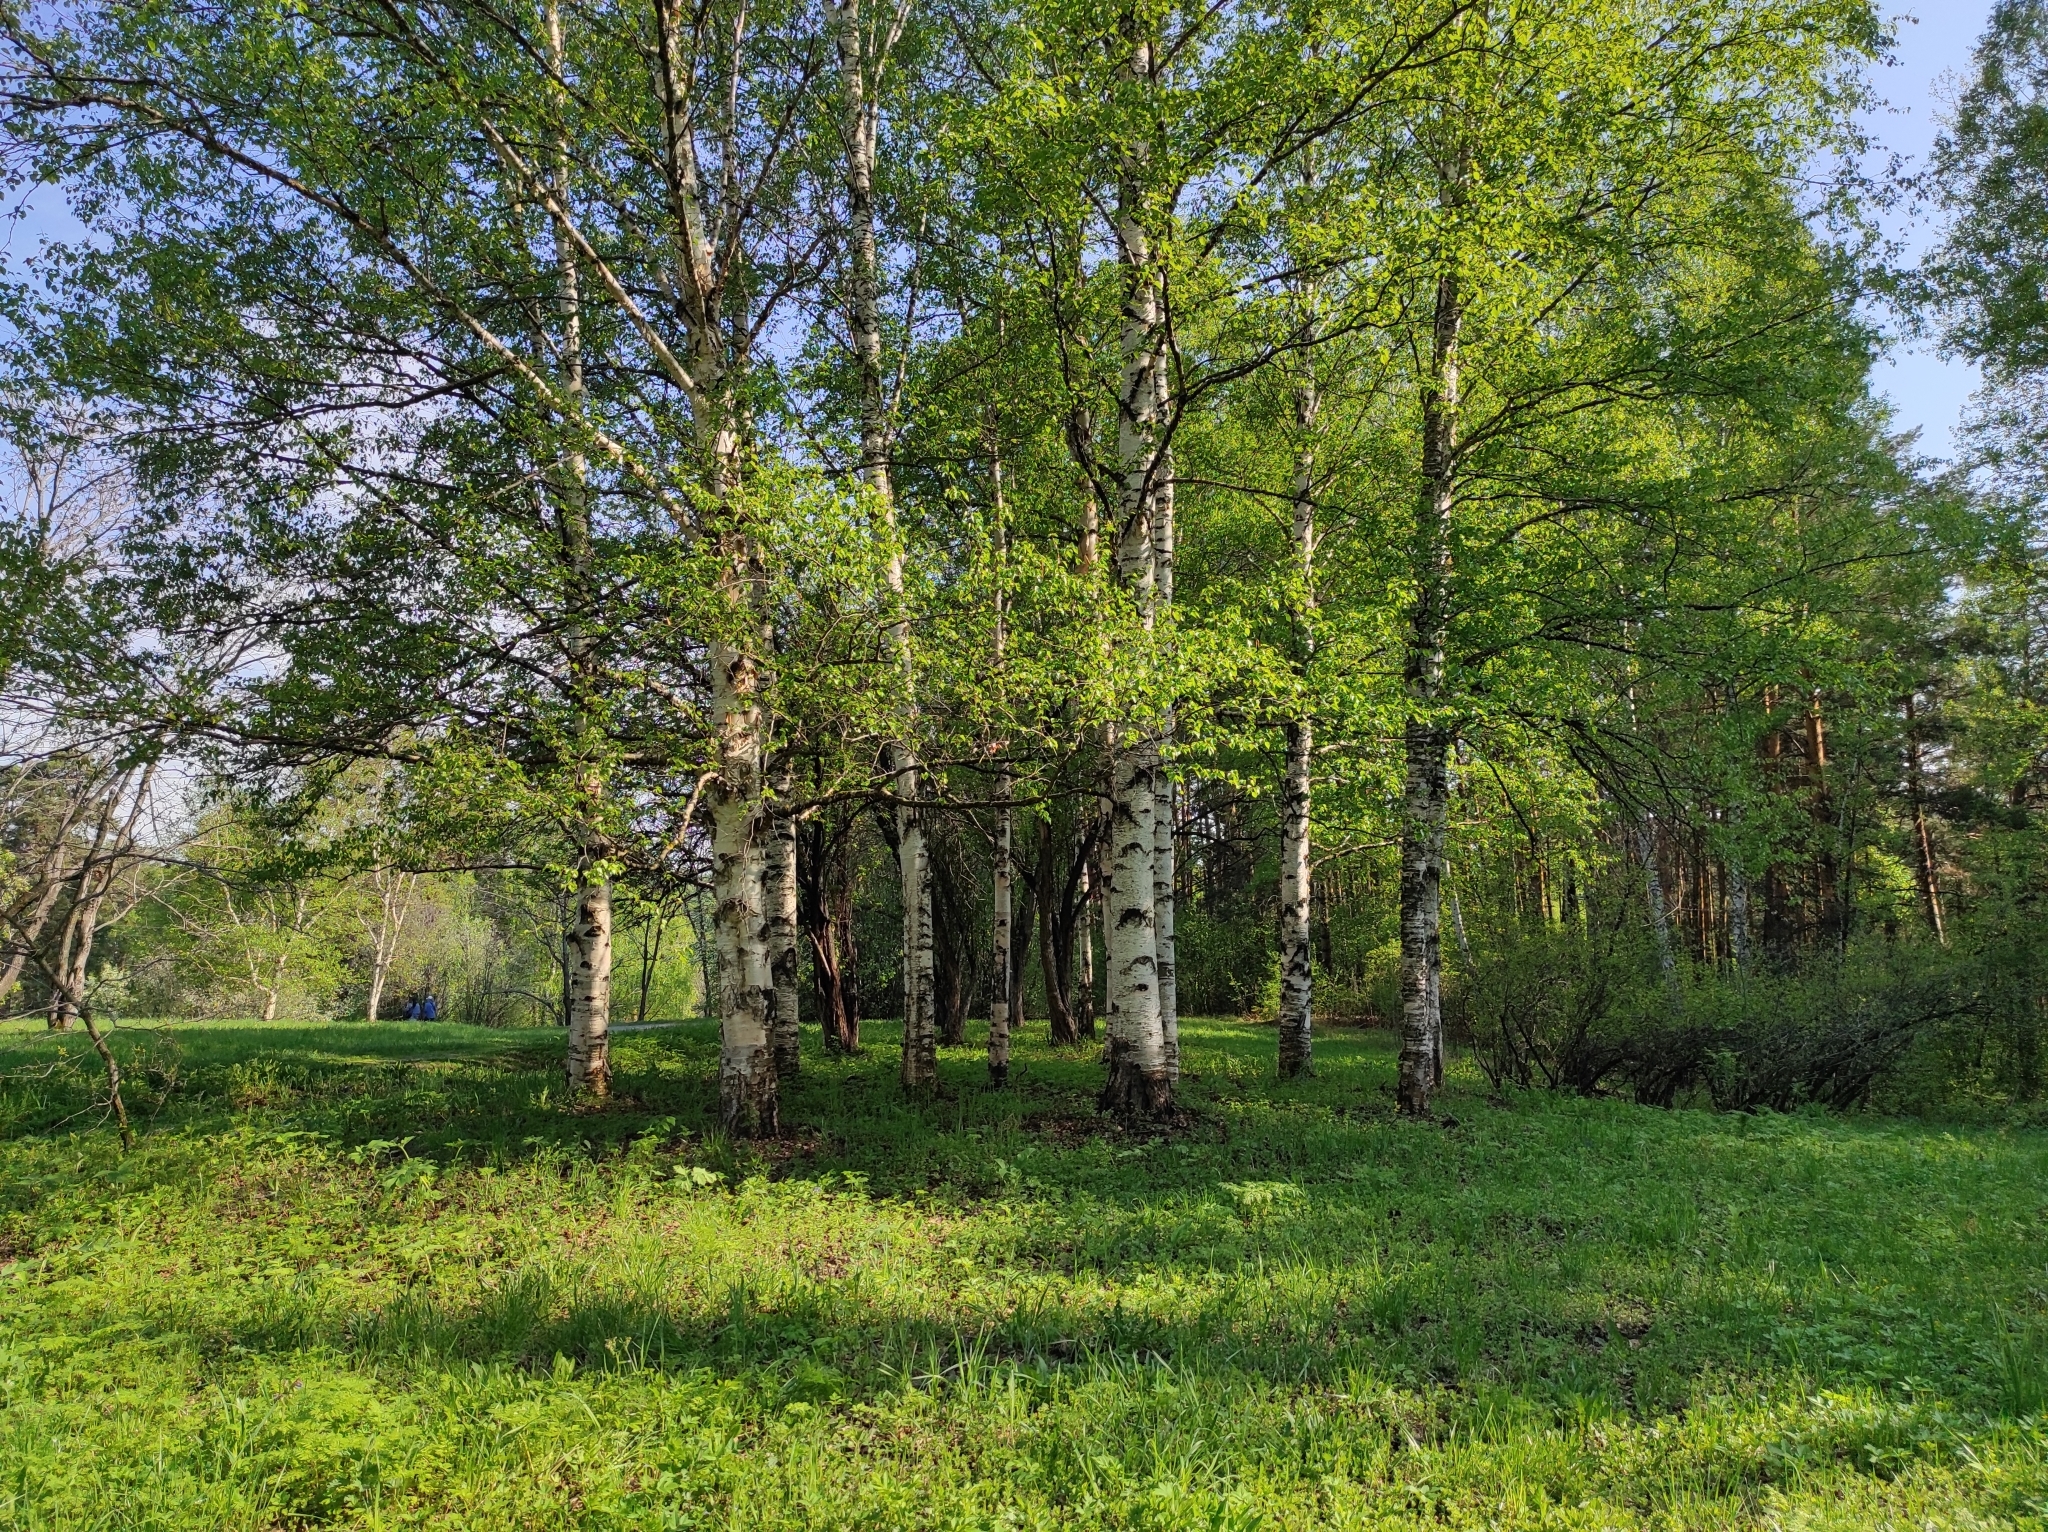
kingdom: Plantae
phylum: Tracheophyta
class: Magnoliopsida
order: Fagales
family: Betulaceae
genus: Betula
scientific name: Betula pendula
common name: Silver birch
